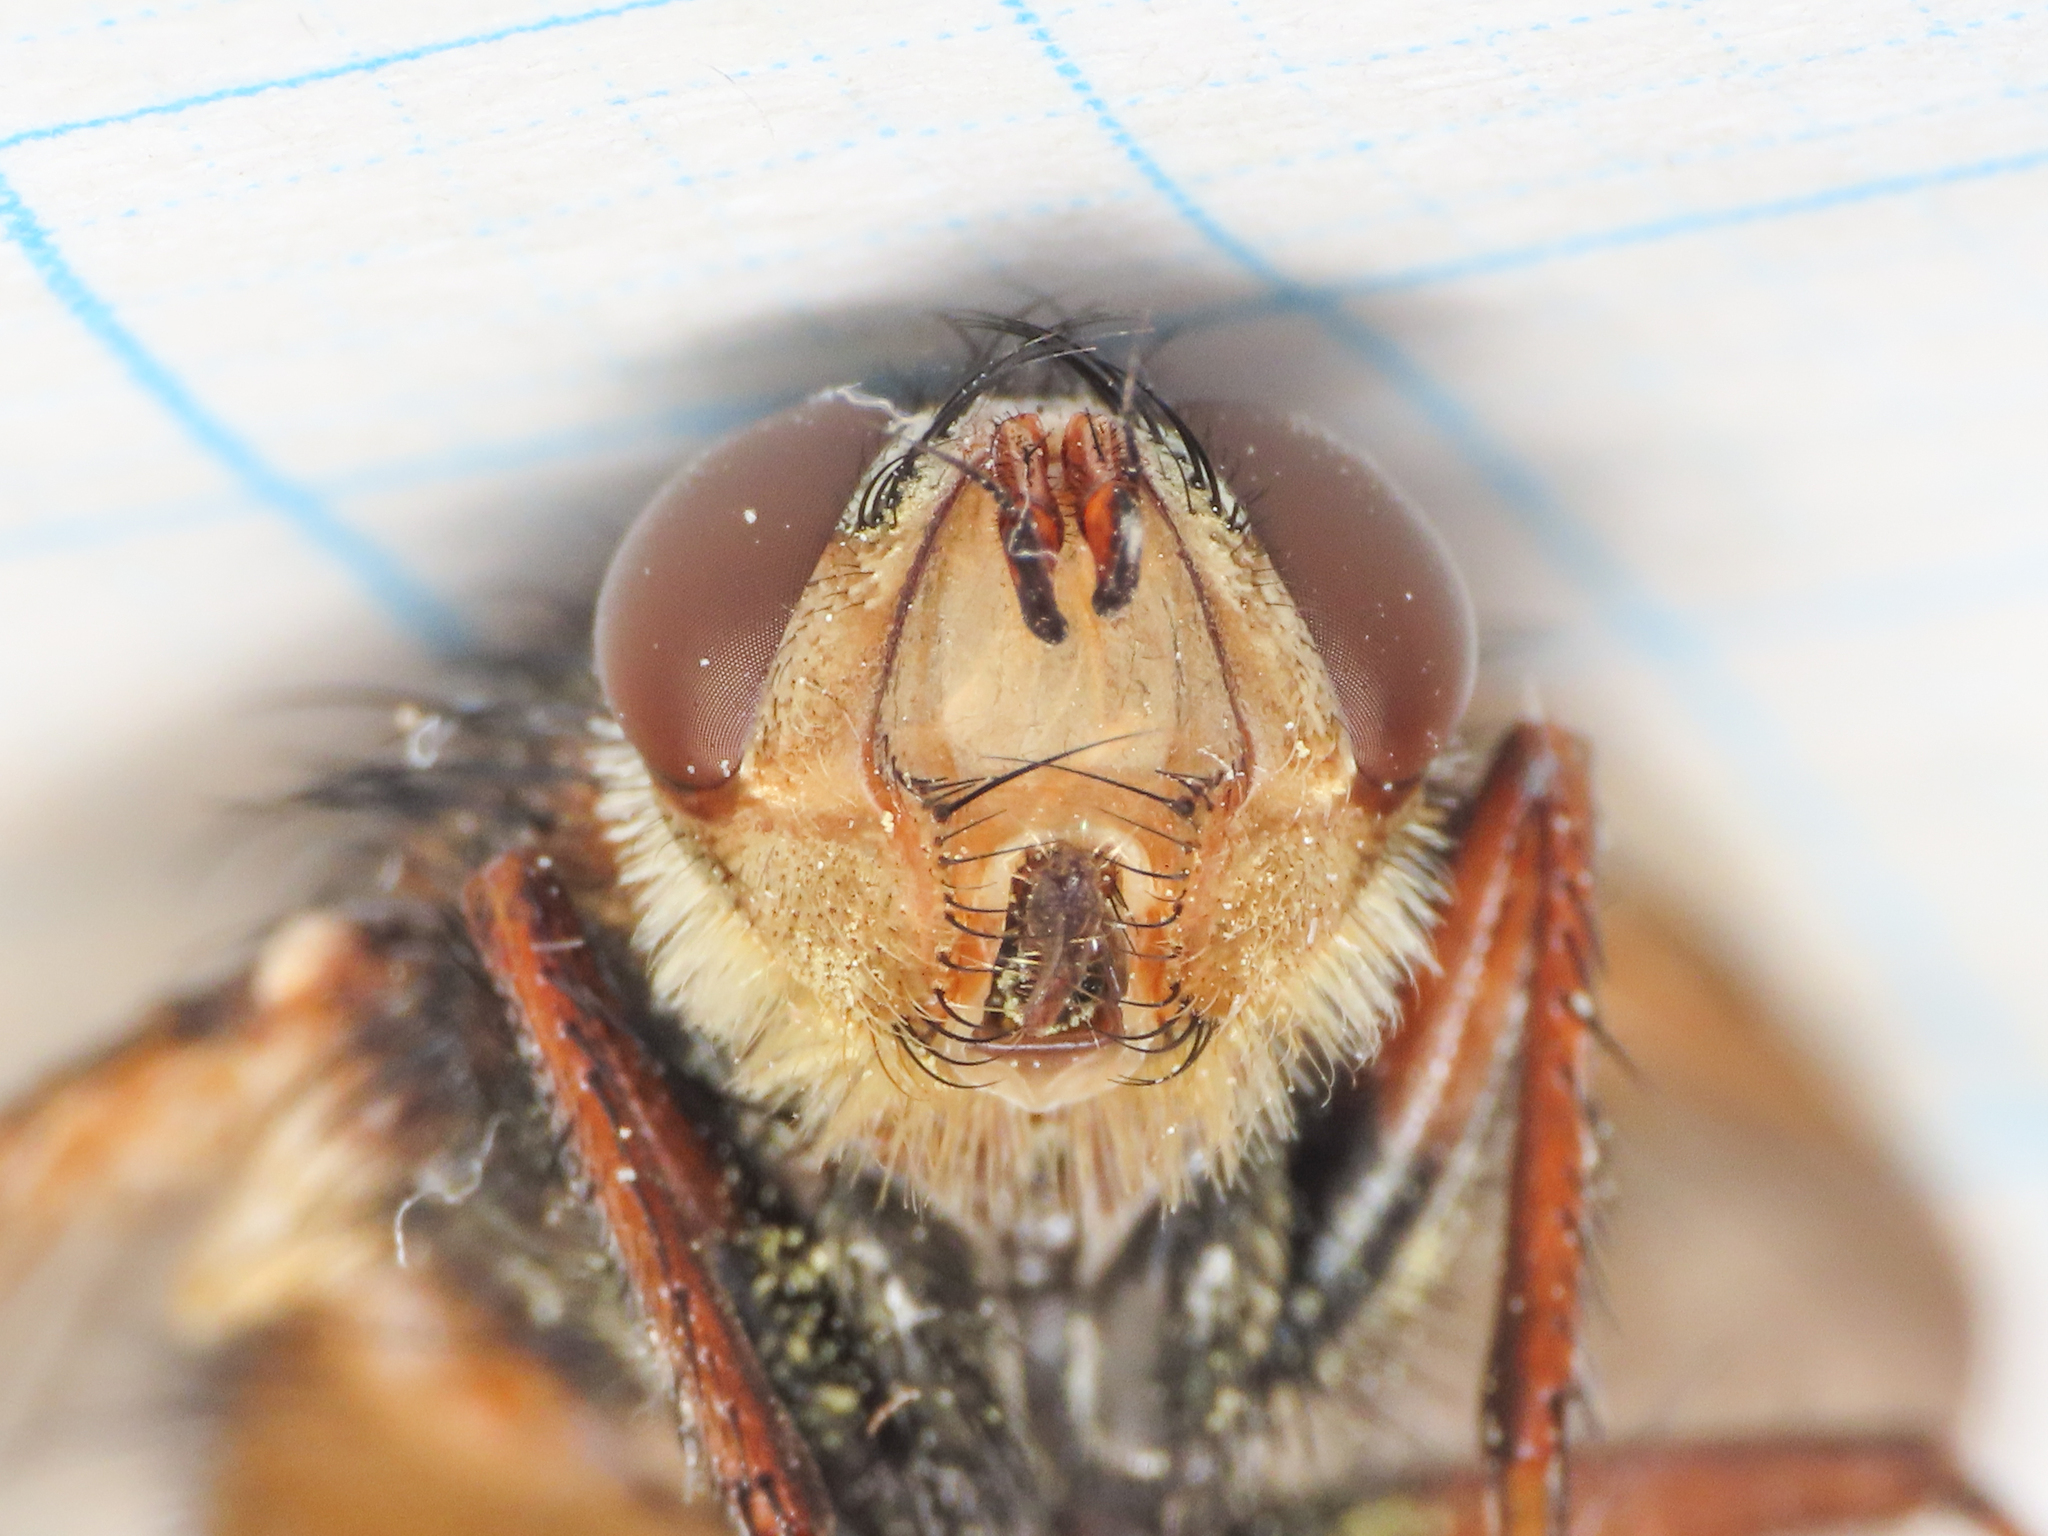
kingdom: Animalia
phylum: Arthropoda
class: Insecta
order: Diptera
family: Tachinidae
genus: Tachina
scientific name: Tachina fera
